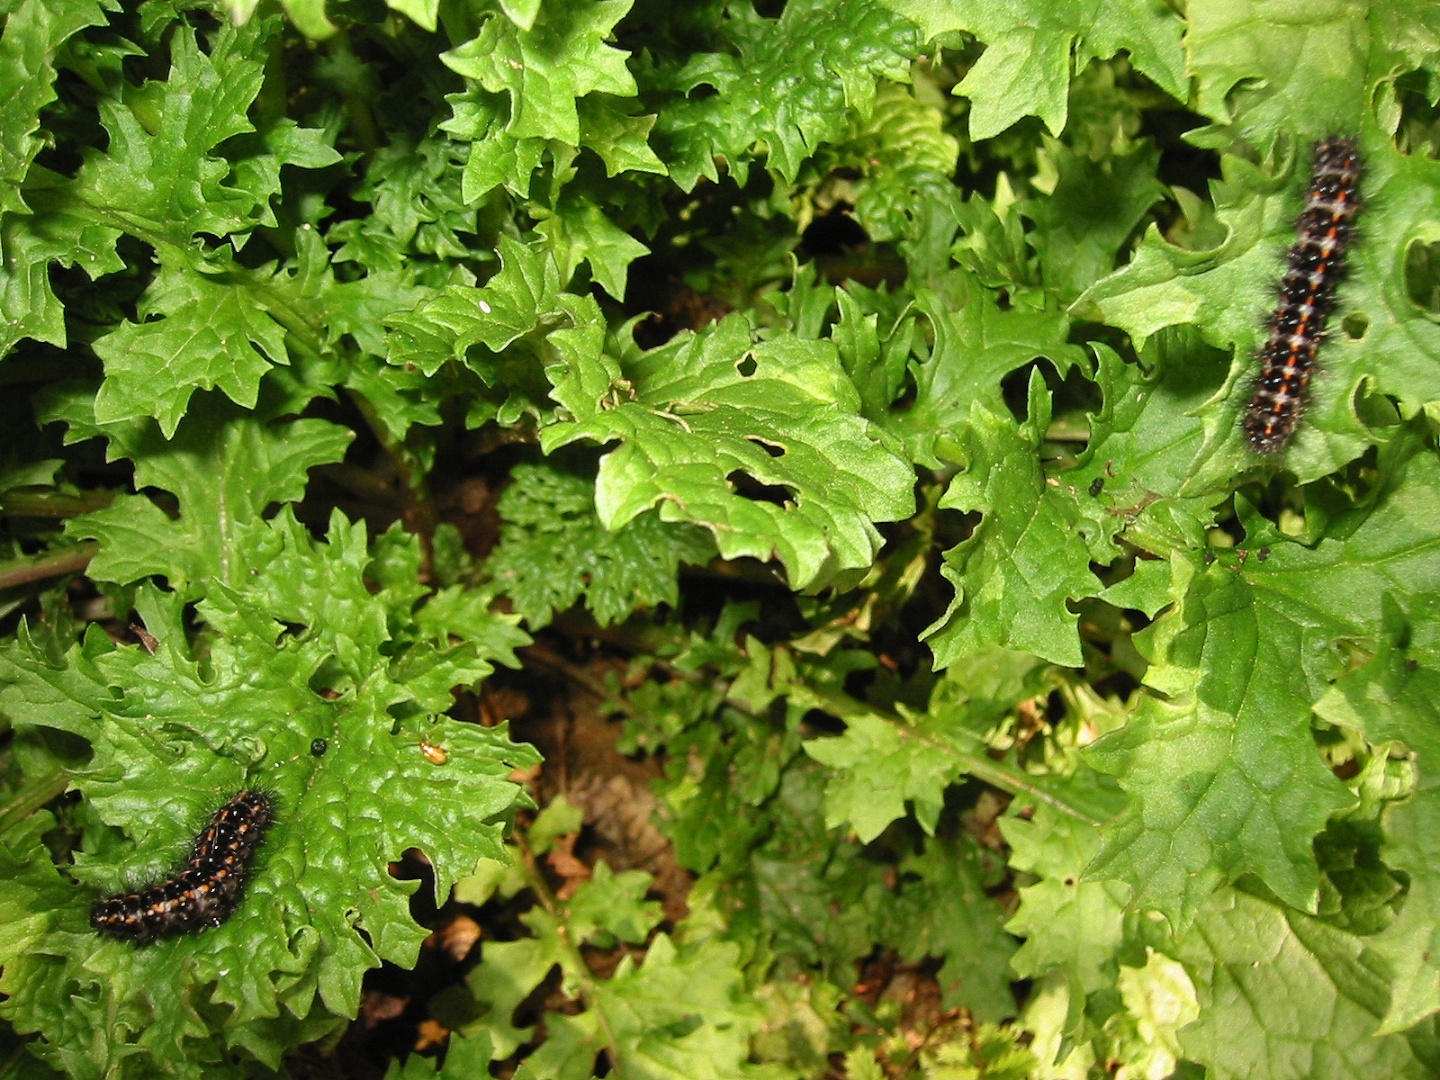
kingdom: Animalia
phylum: Arthropoda
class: Insecta
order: Coleoptera
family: Chrysomelidae
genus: Longitarsus
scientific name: Longitarsus jacobaeae
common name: Tansy ragwort flea beetle
